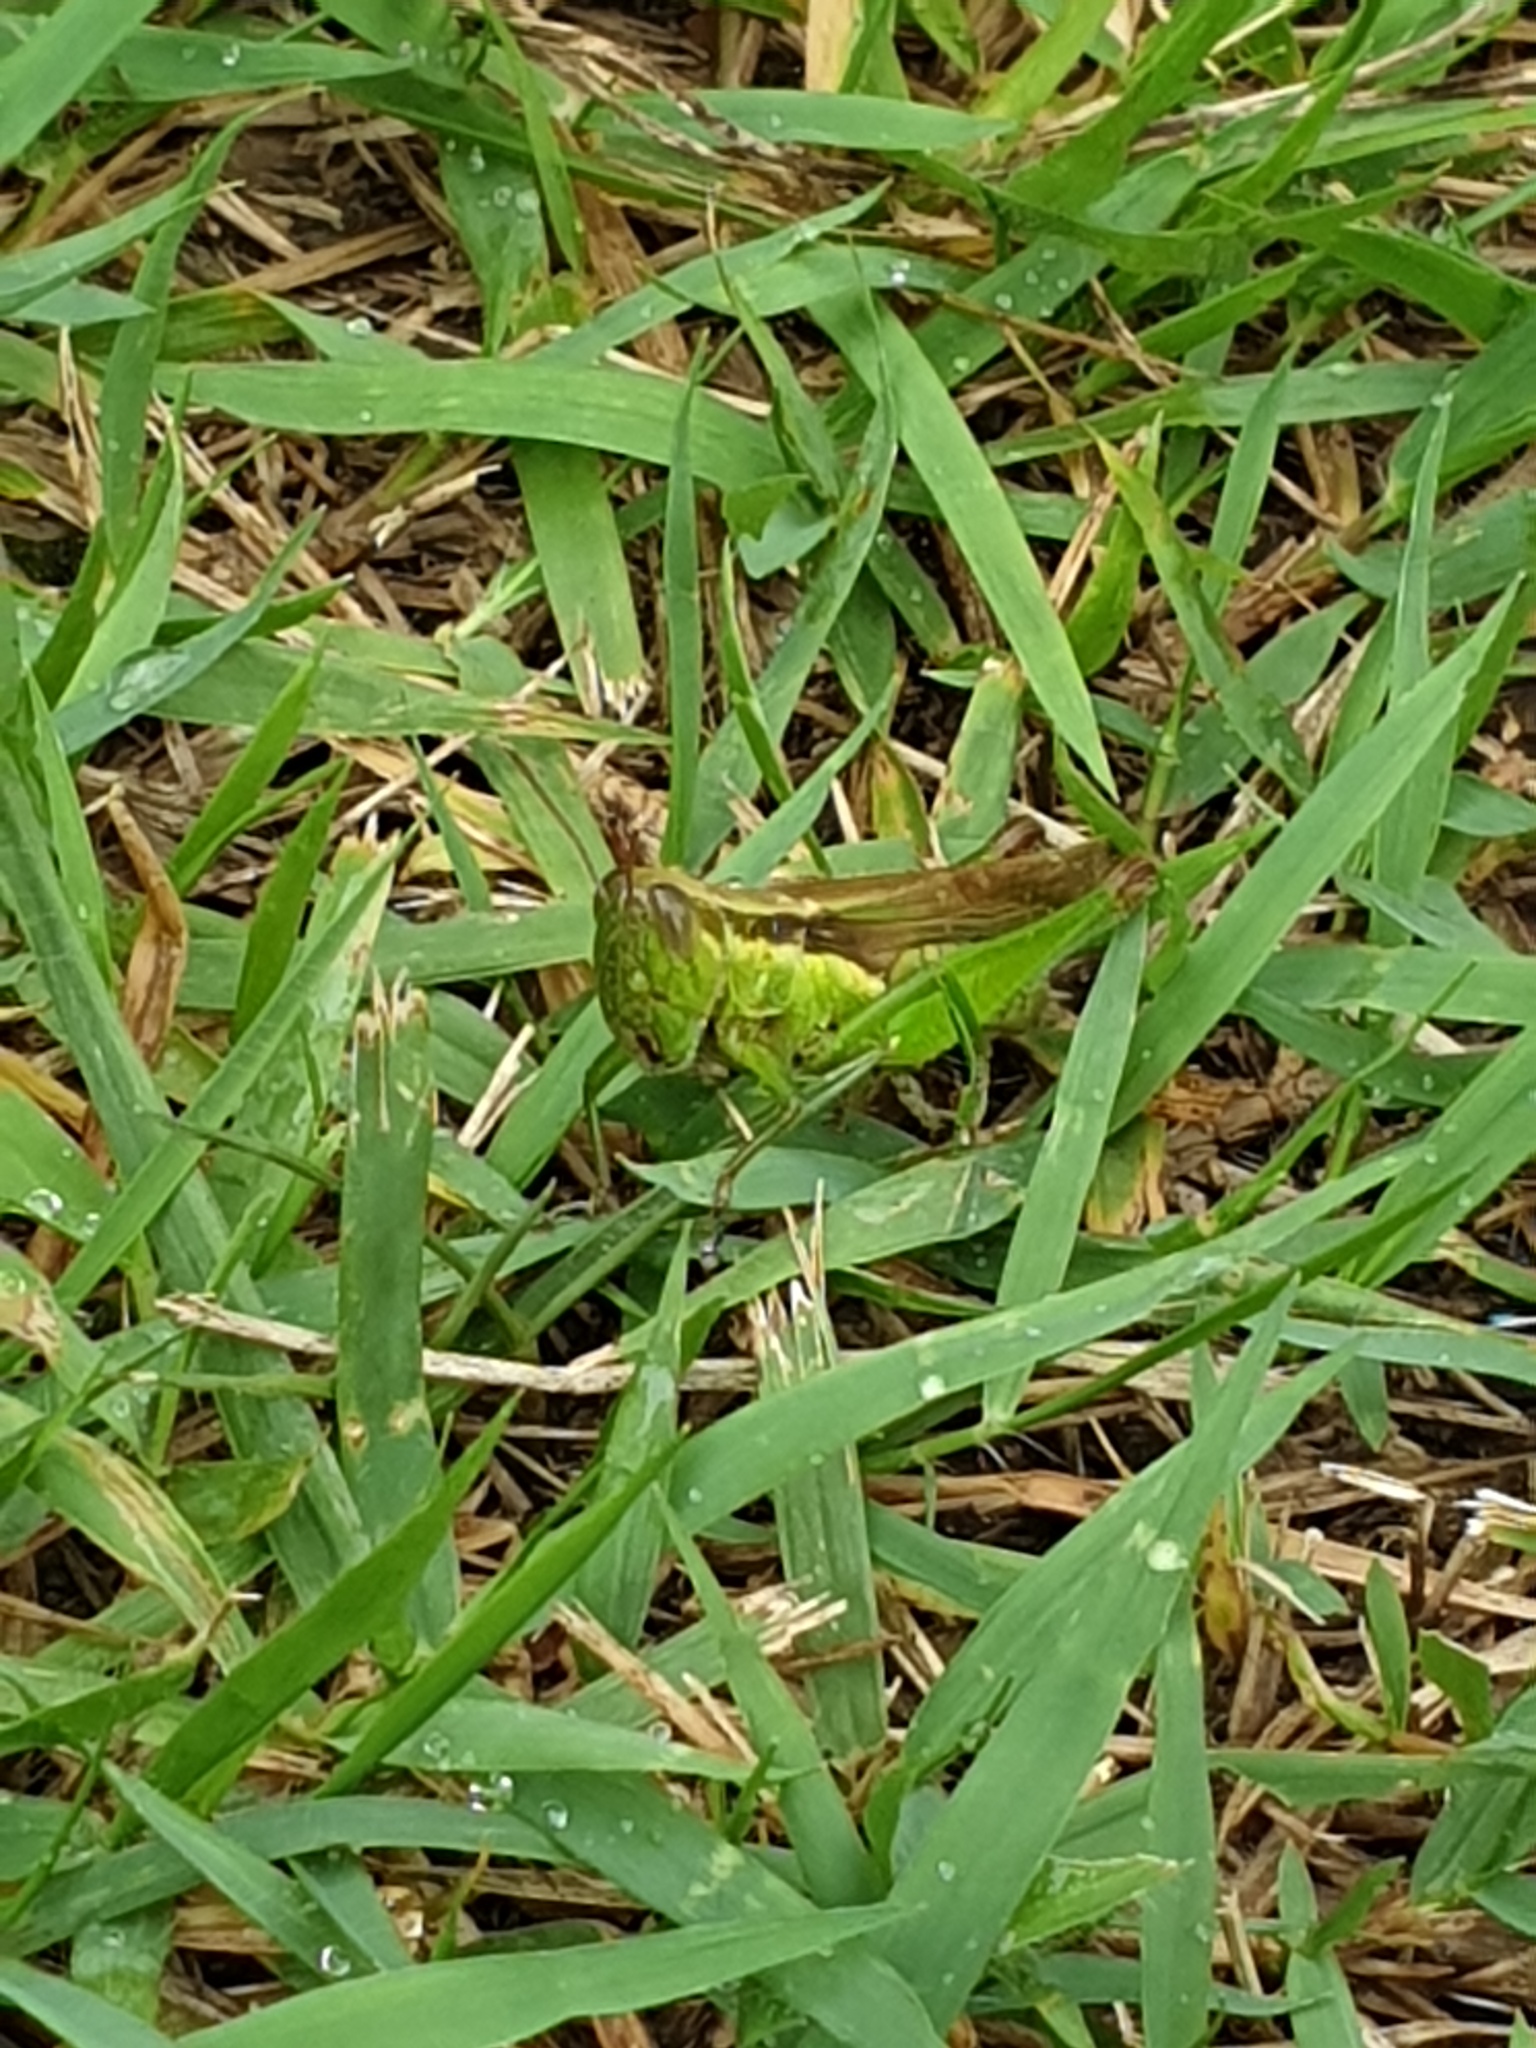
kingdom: Animalia
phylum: Arthropoda
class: Insecta
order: Orthoptera
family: Acrididae
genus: Oxya
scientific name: Oxya japonica
